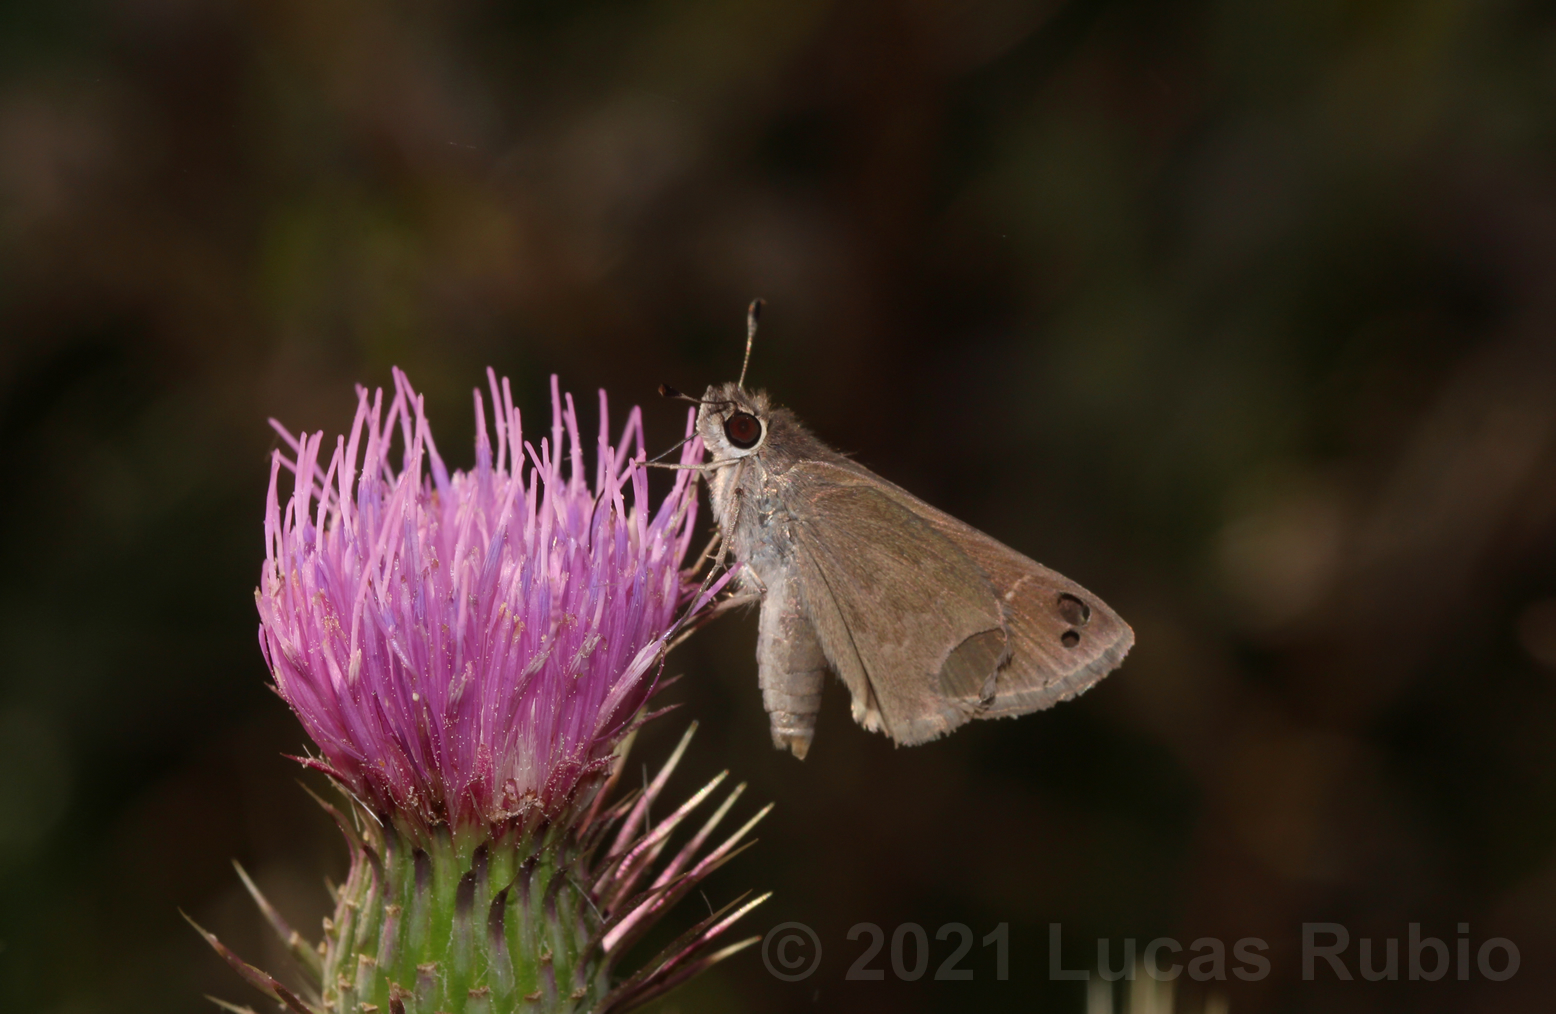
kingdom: Animalia
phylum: Arthropoda
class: Insecta
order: Lepidoptera
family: Hesperiidae
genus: Lerodea
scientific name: Lerodea eufala
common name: Eufala skipper
